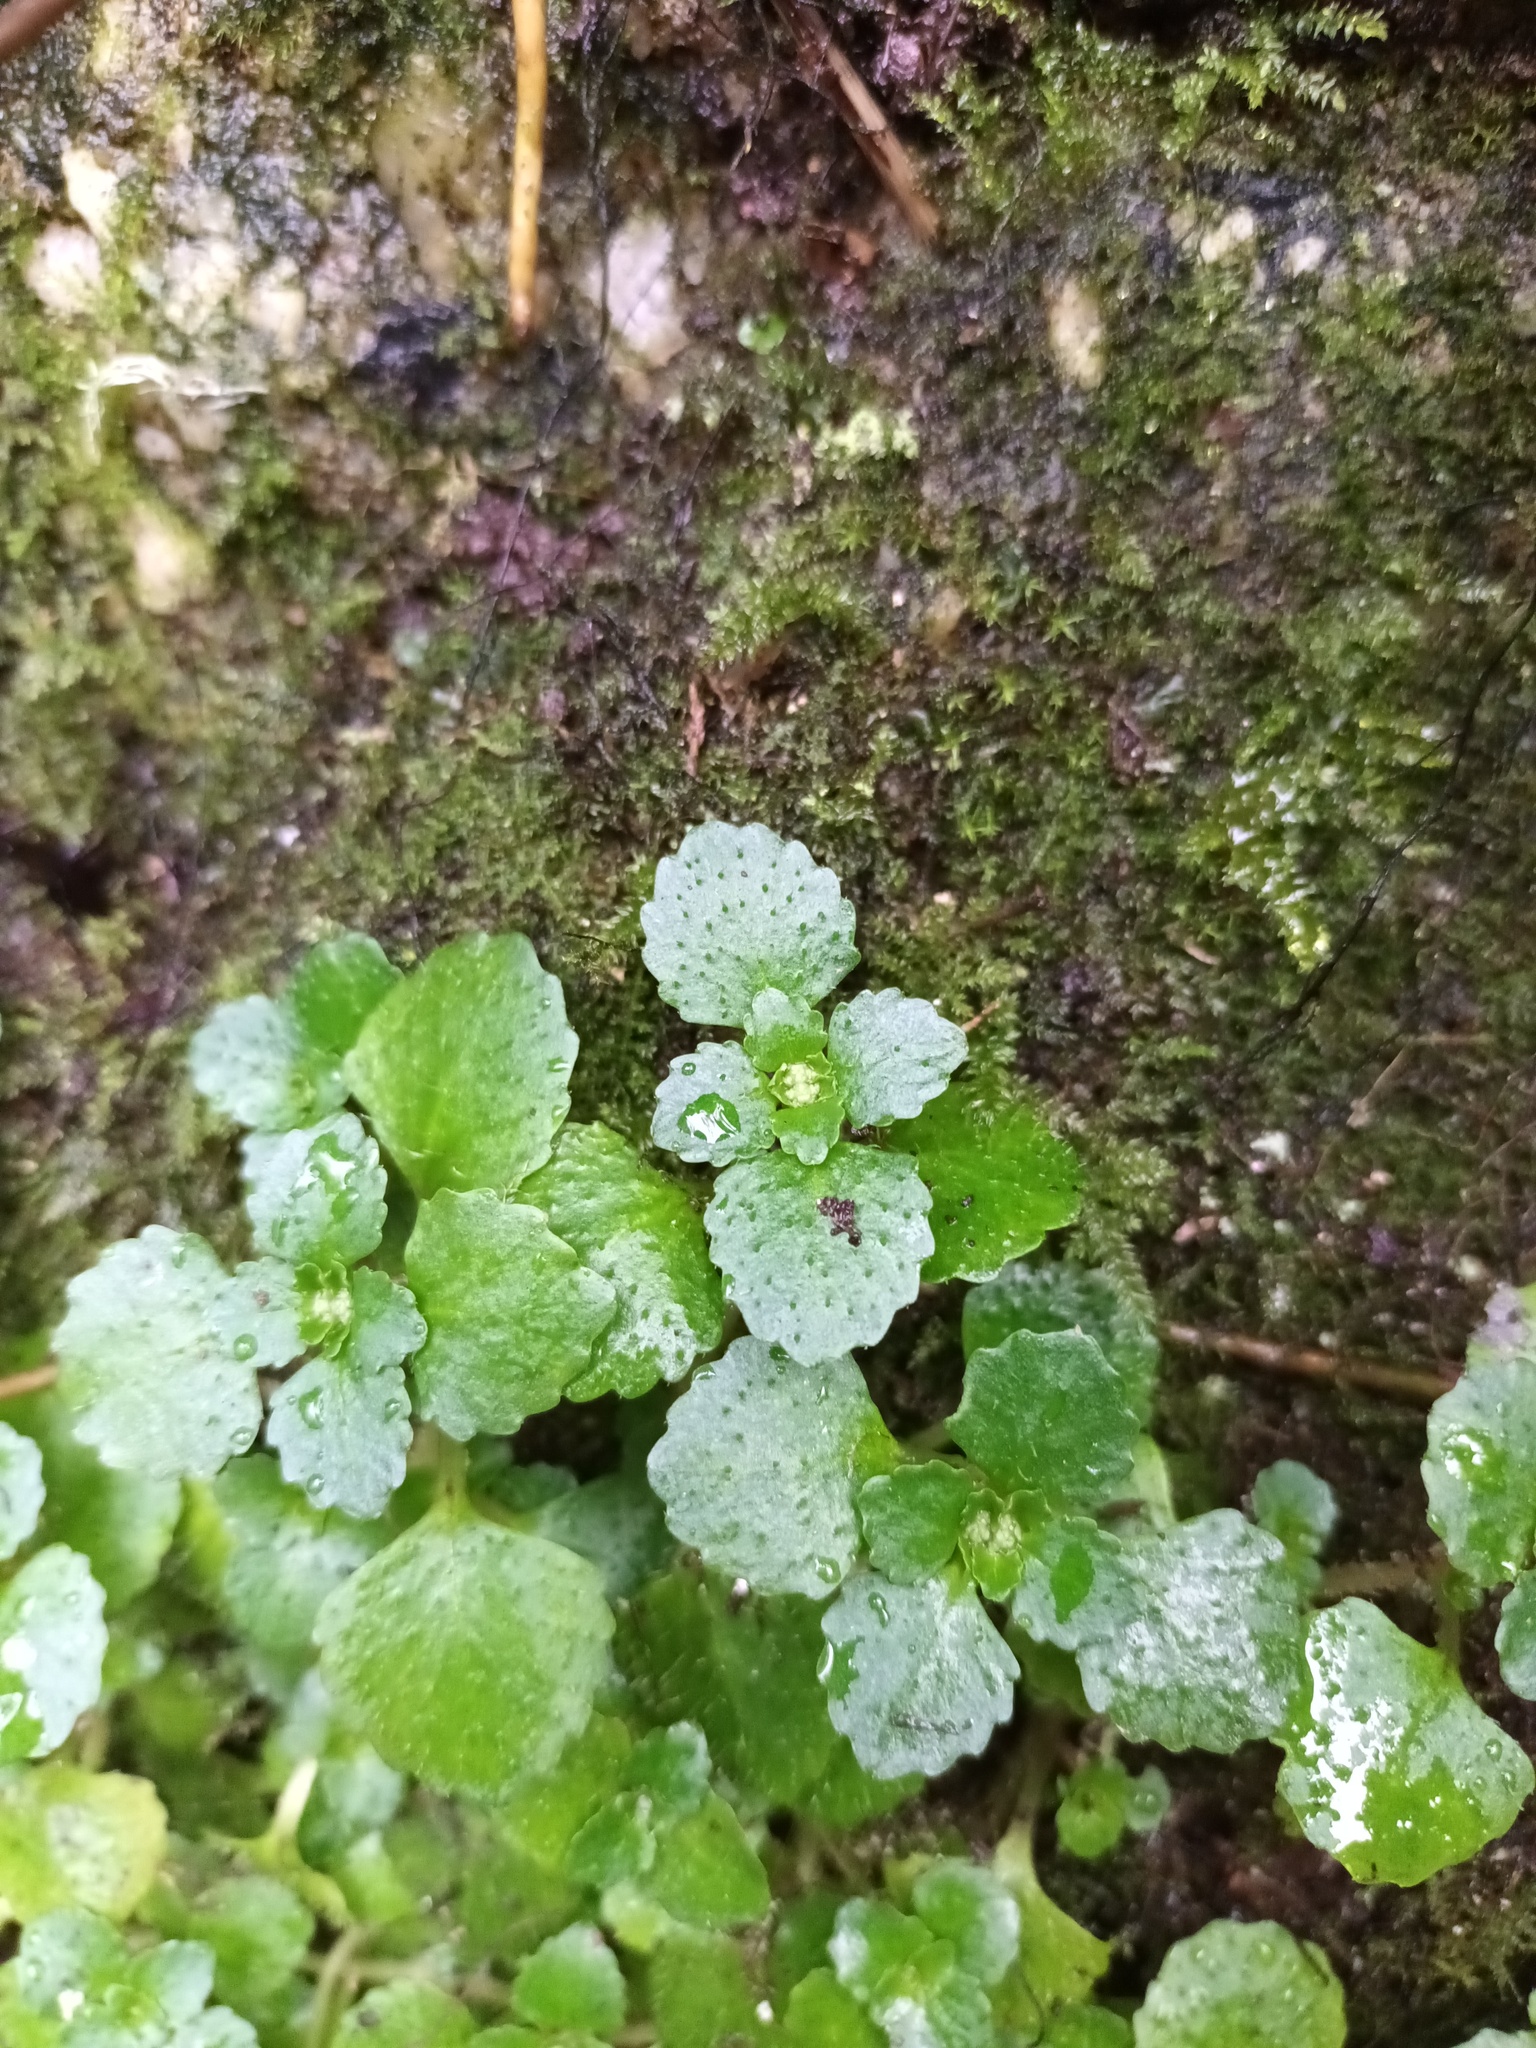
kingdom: Plantae
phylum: Tracheophyta
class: Magnoliopsida
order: Saxifragales
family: Saxifragaceae
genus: Chrysosplenium
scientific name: Chrysosplenium oppositifolium
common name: Opposite-leaved golden-saxifrage
